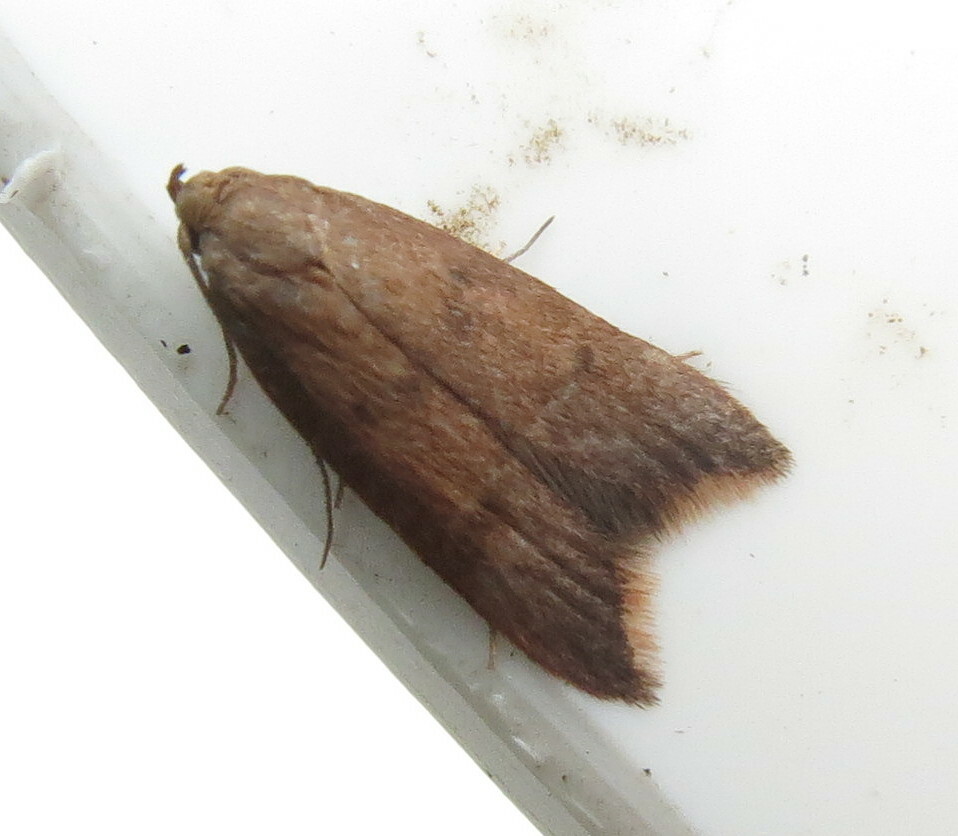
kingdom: Animalia
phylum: Arthropoda
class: Insecta
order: Lepidoptera
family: Oecophoridae
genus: Tachystola
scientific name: Tachystola acroxantha
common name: Ruddy streak
